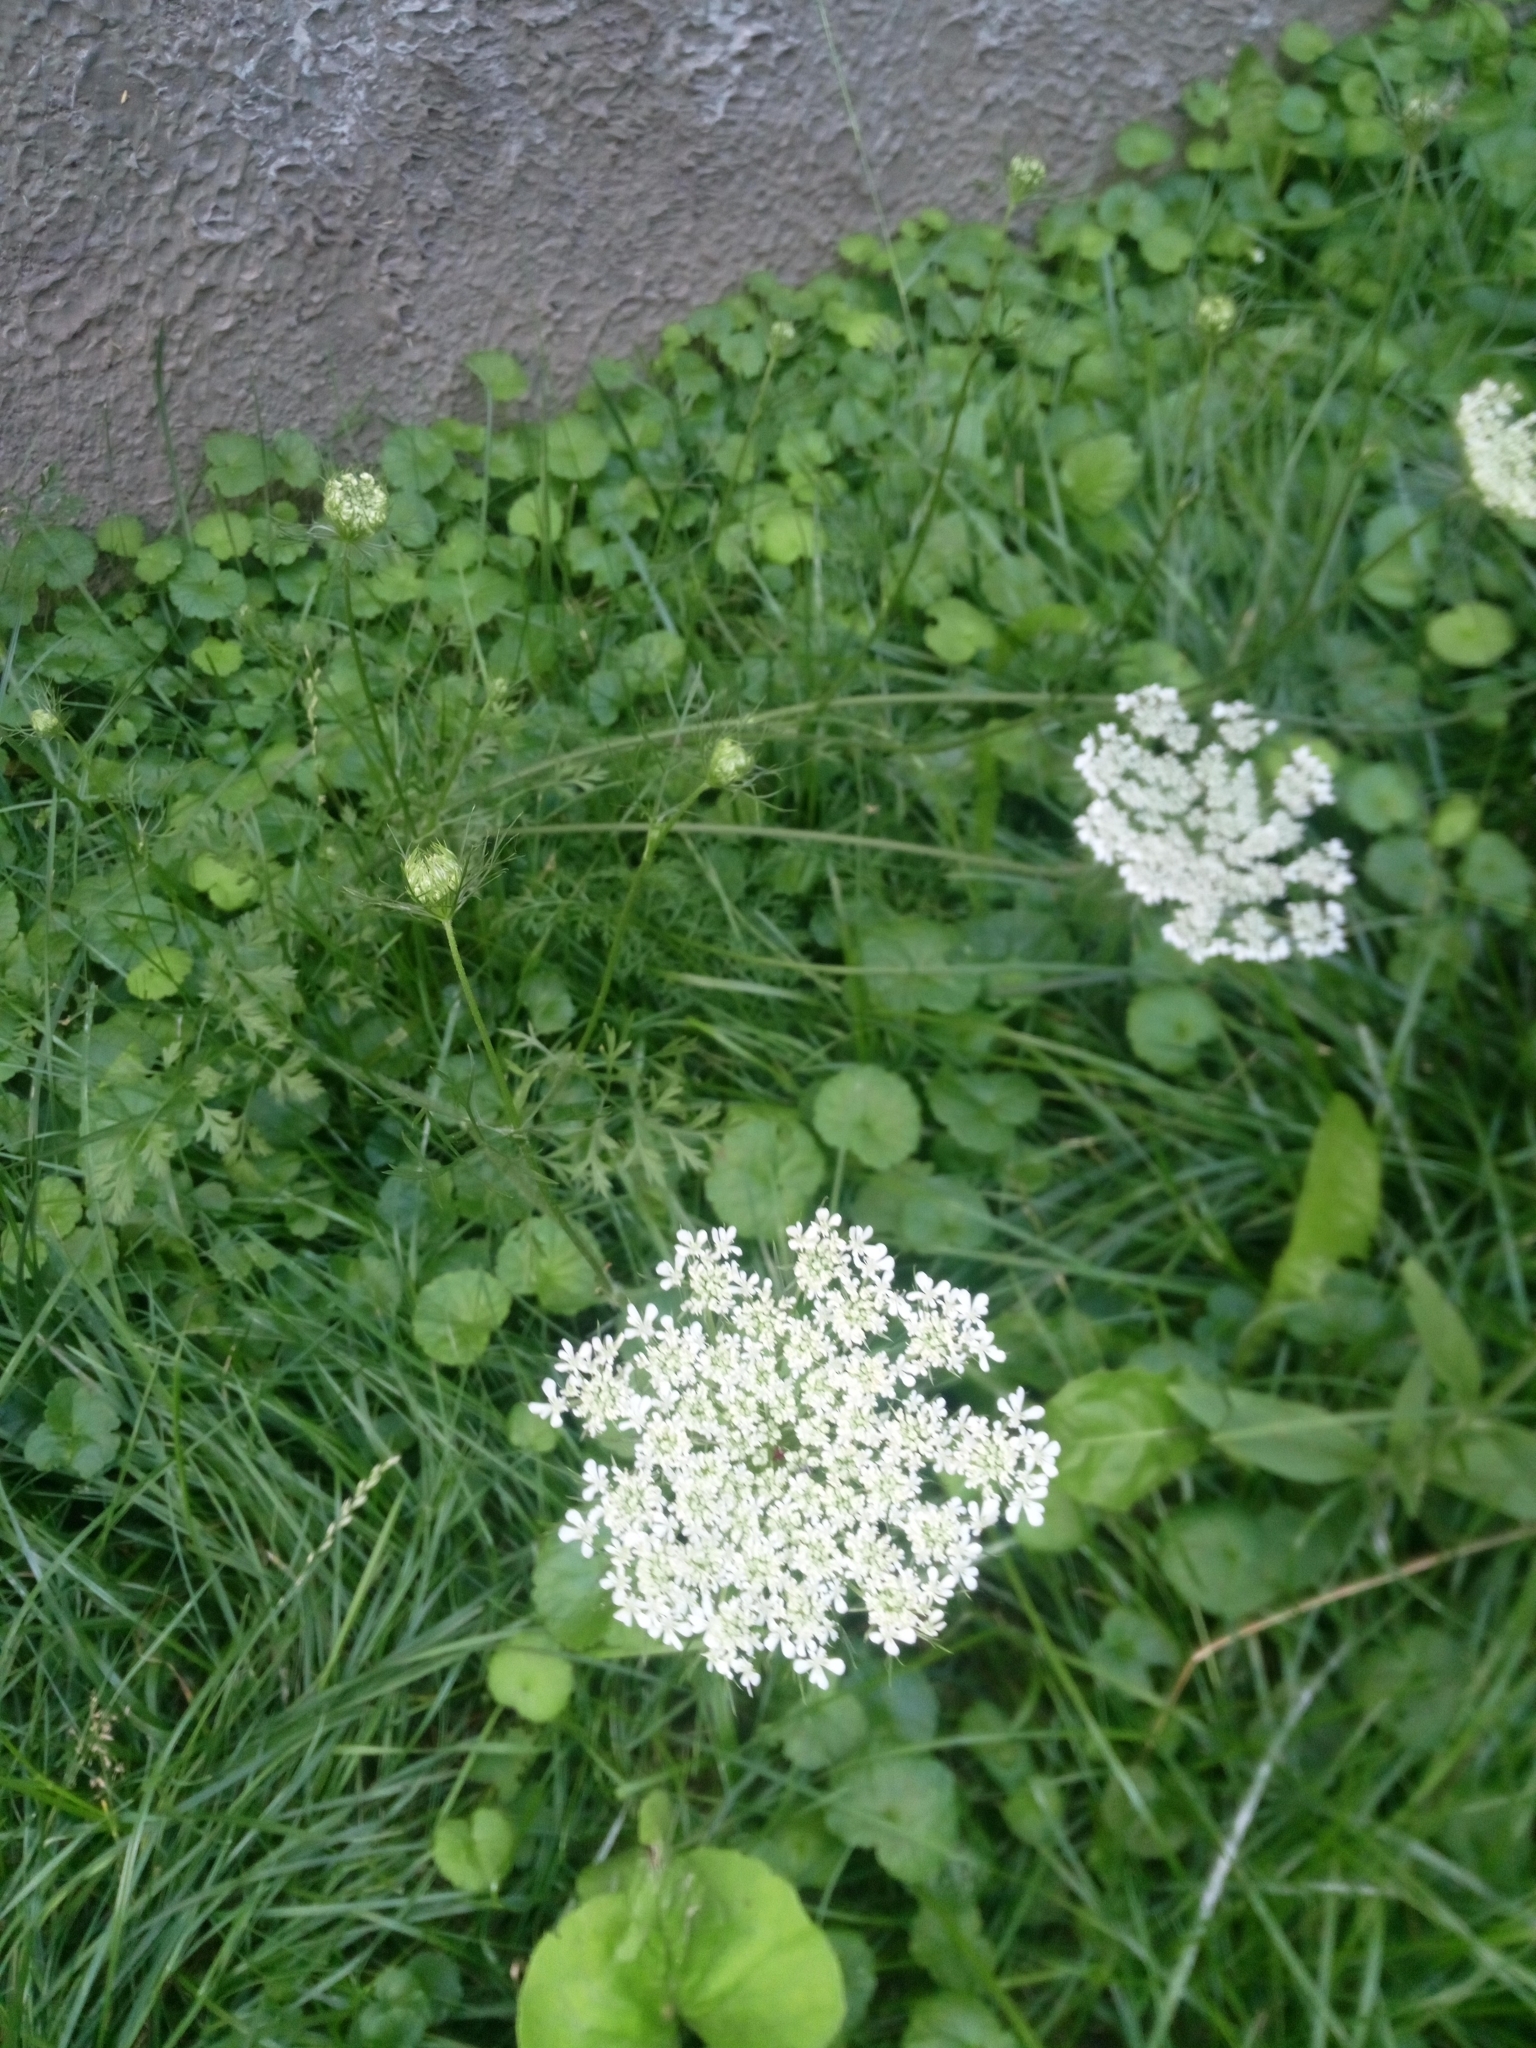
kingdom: Plantae
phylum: Tracheophyta
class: Magnoliopsida
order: Apiales
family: Apiaceae
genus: Daucus
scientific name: Daucus carota
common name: Wild carrot
